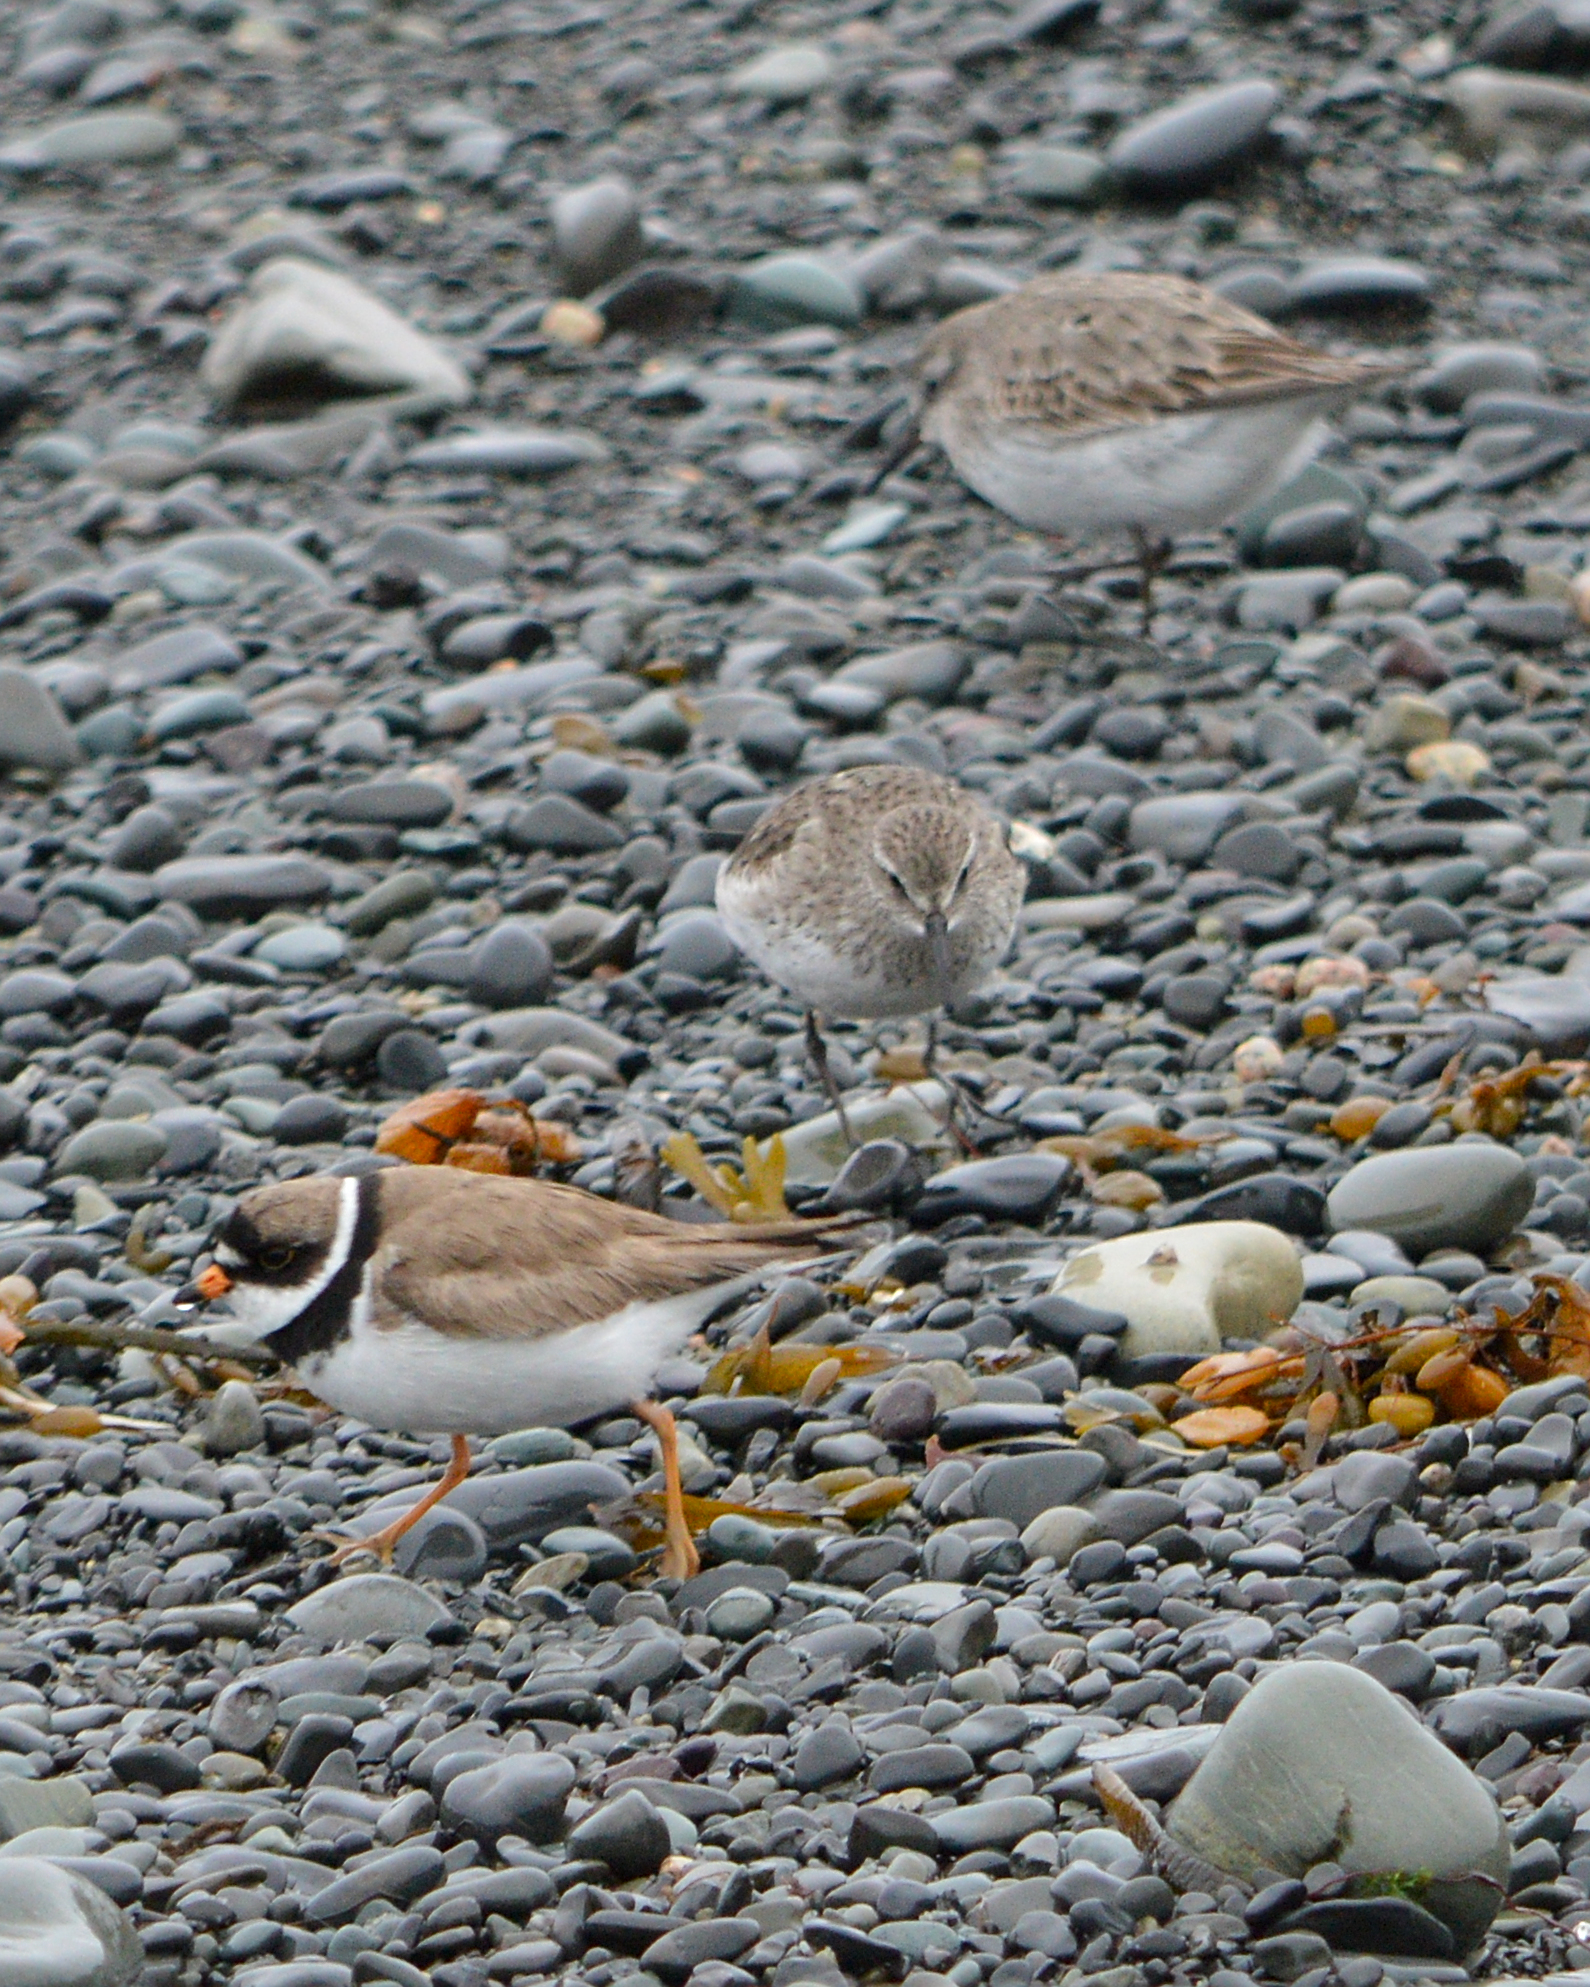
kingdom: Animalia
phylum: Chordata
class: Aves
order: Charadriiformes
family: Charadriidae
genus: Charadrius
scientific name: Charadrius semipalmatus
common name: Semipalmated plover
